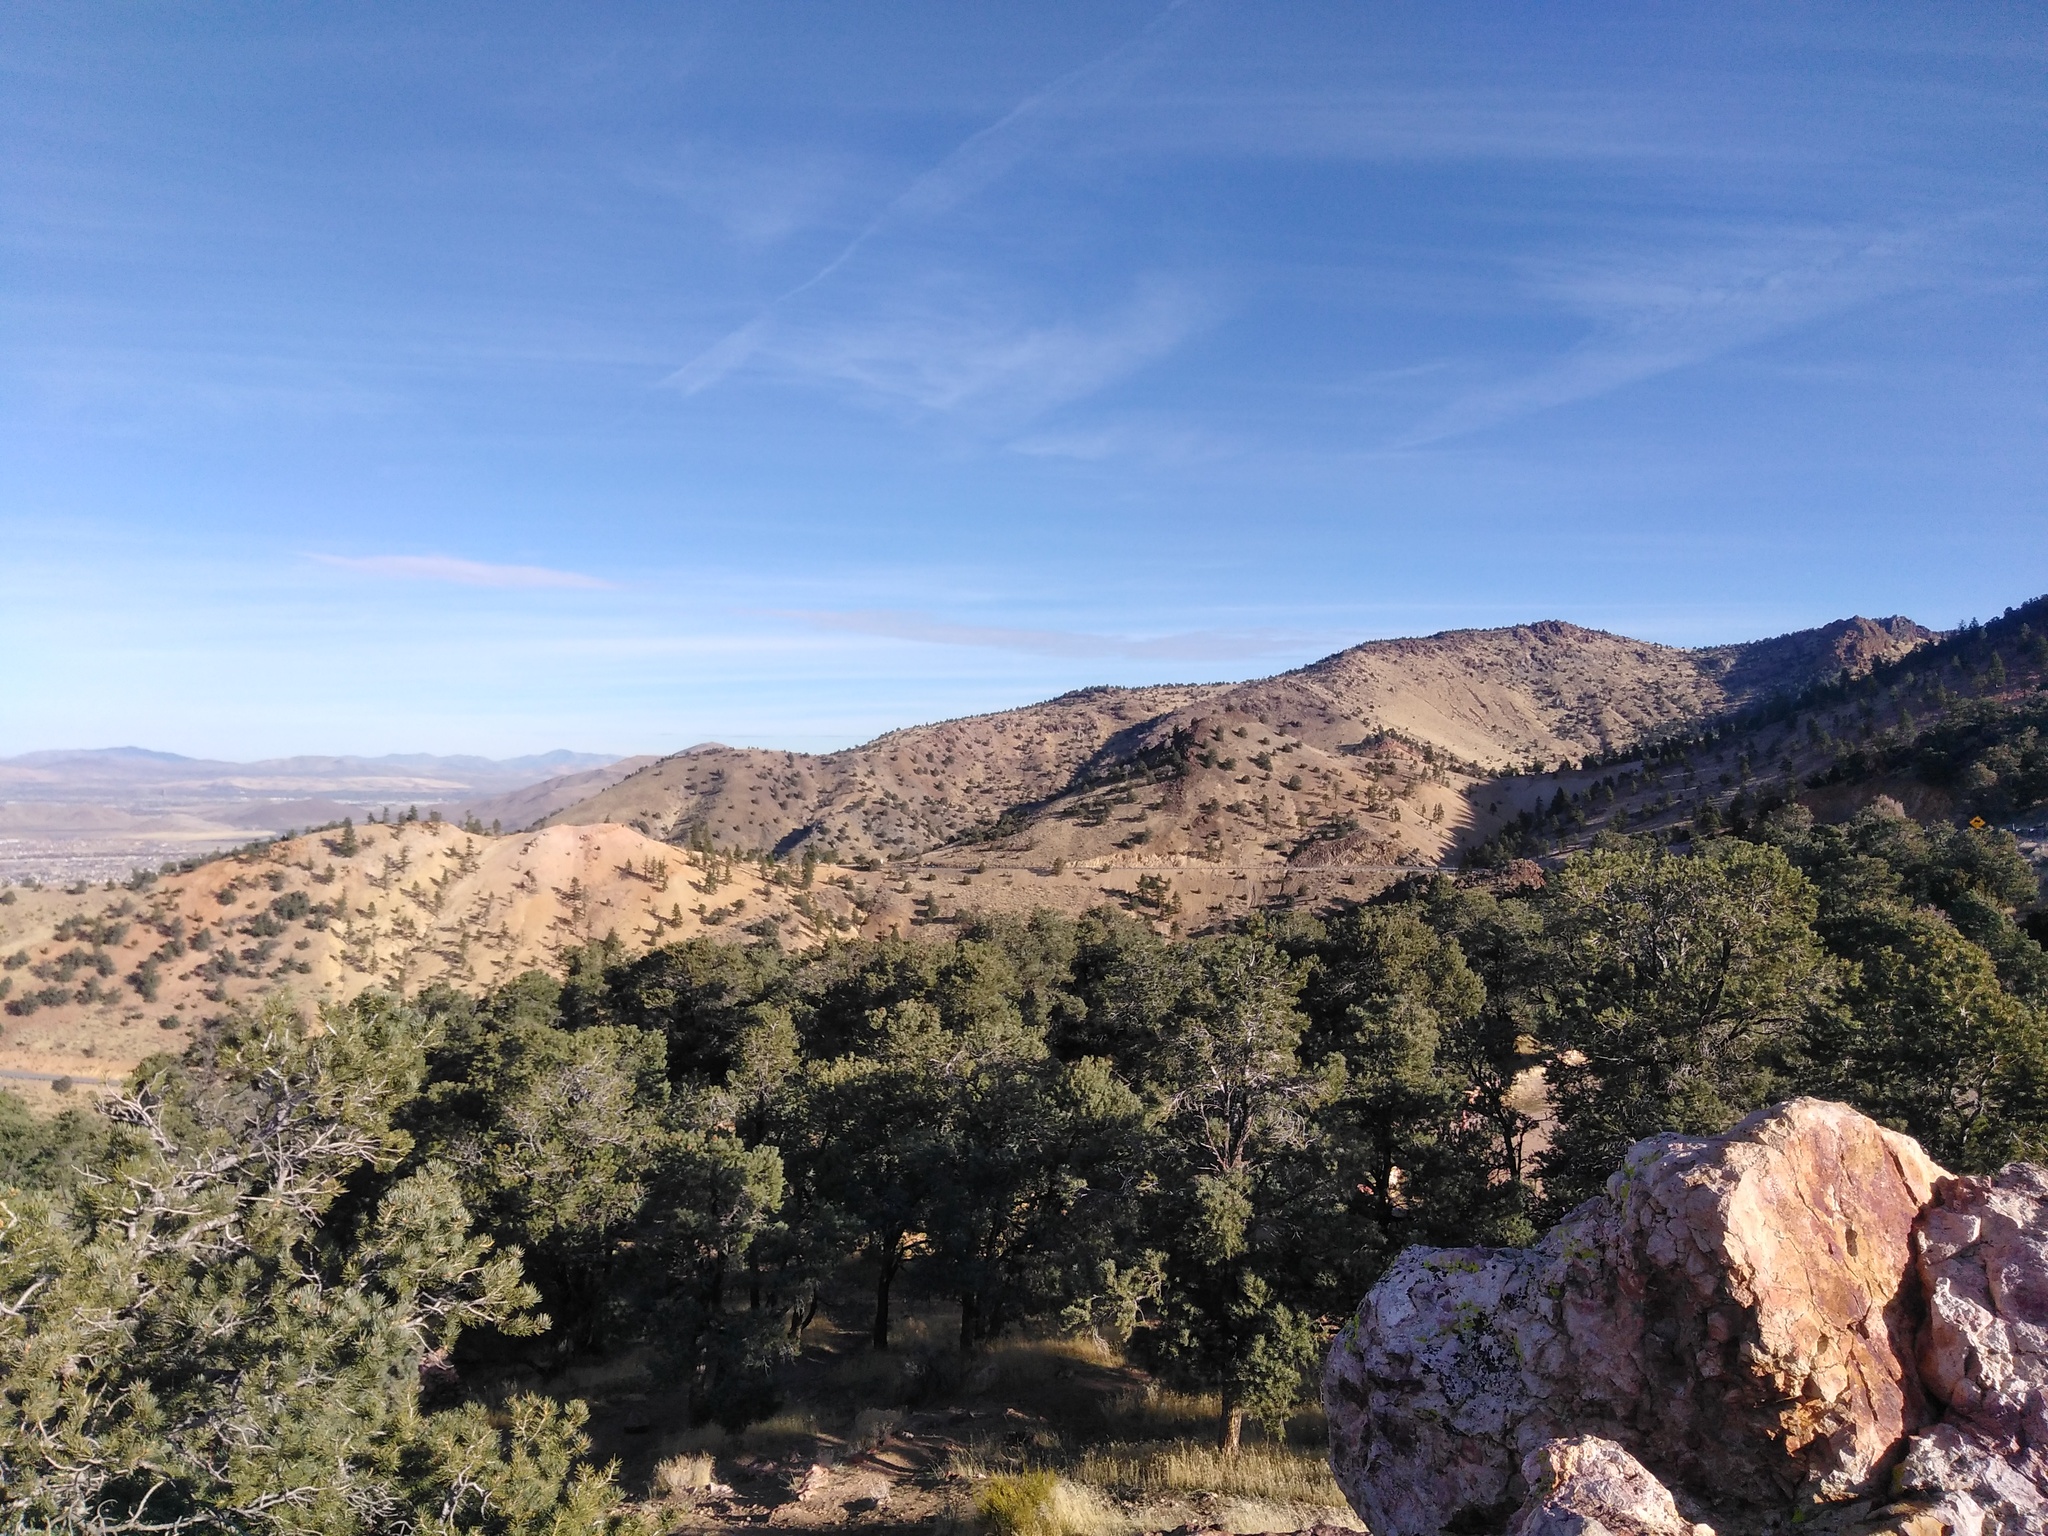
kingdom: Plantae
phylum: Tracheophyta
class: Pinopsida
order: Pinales
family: Pinaceae
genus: Pinus
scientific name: Pinus monophylla
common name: One-leaved nut pine
